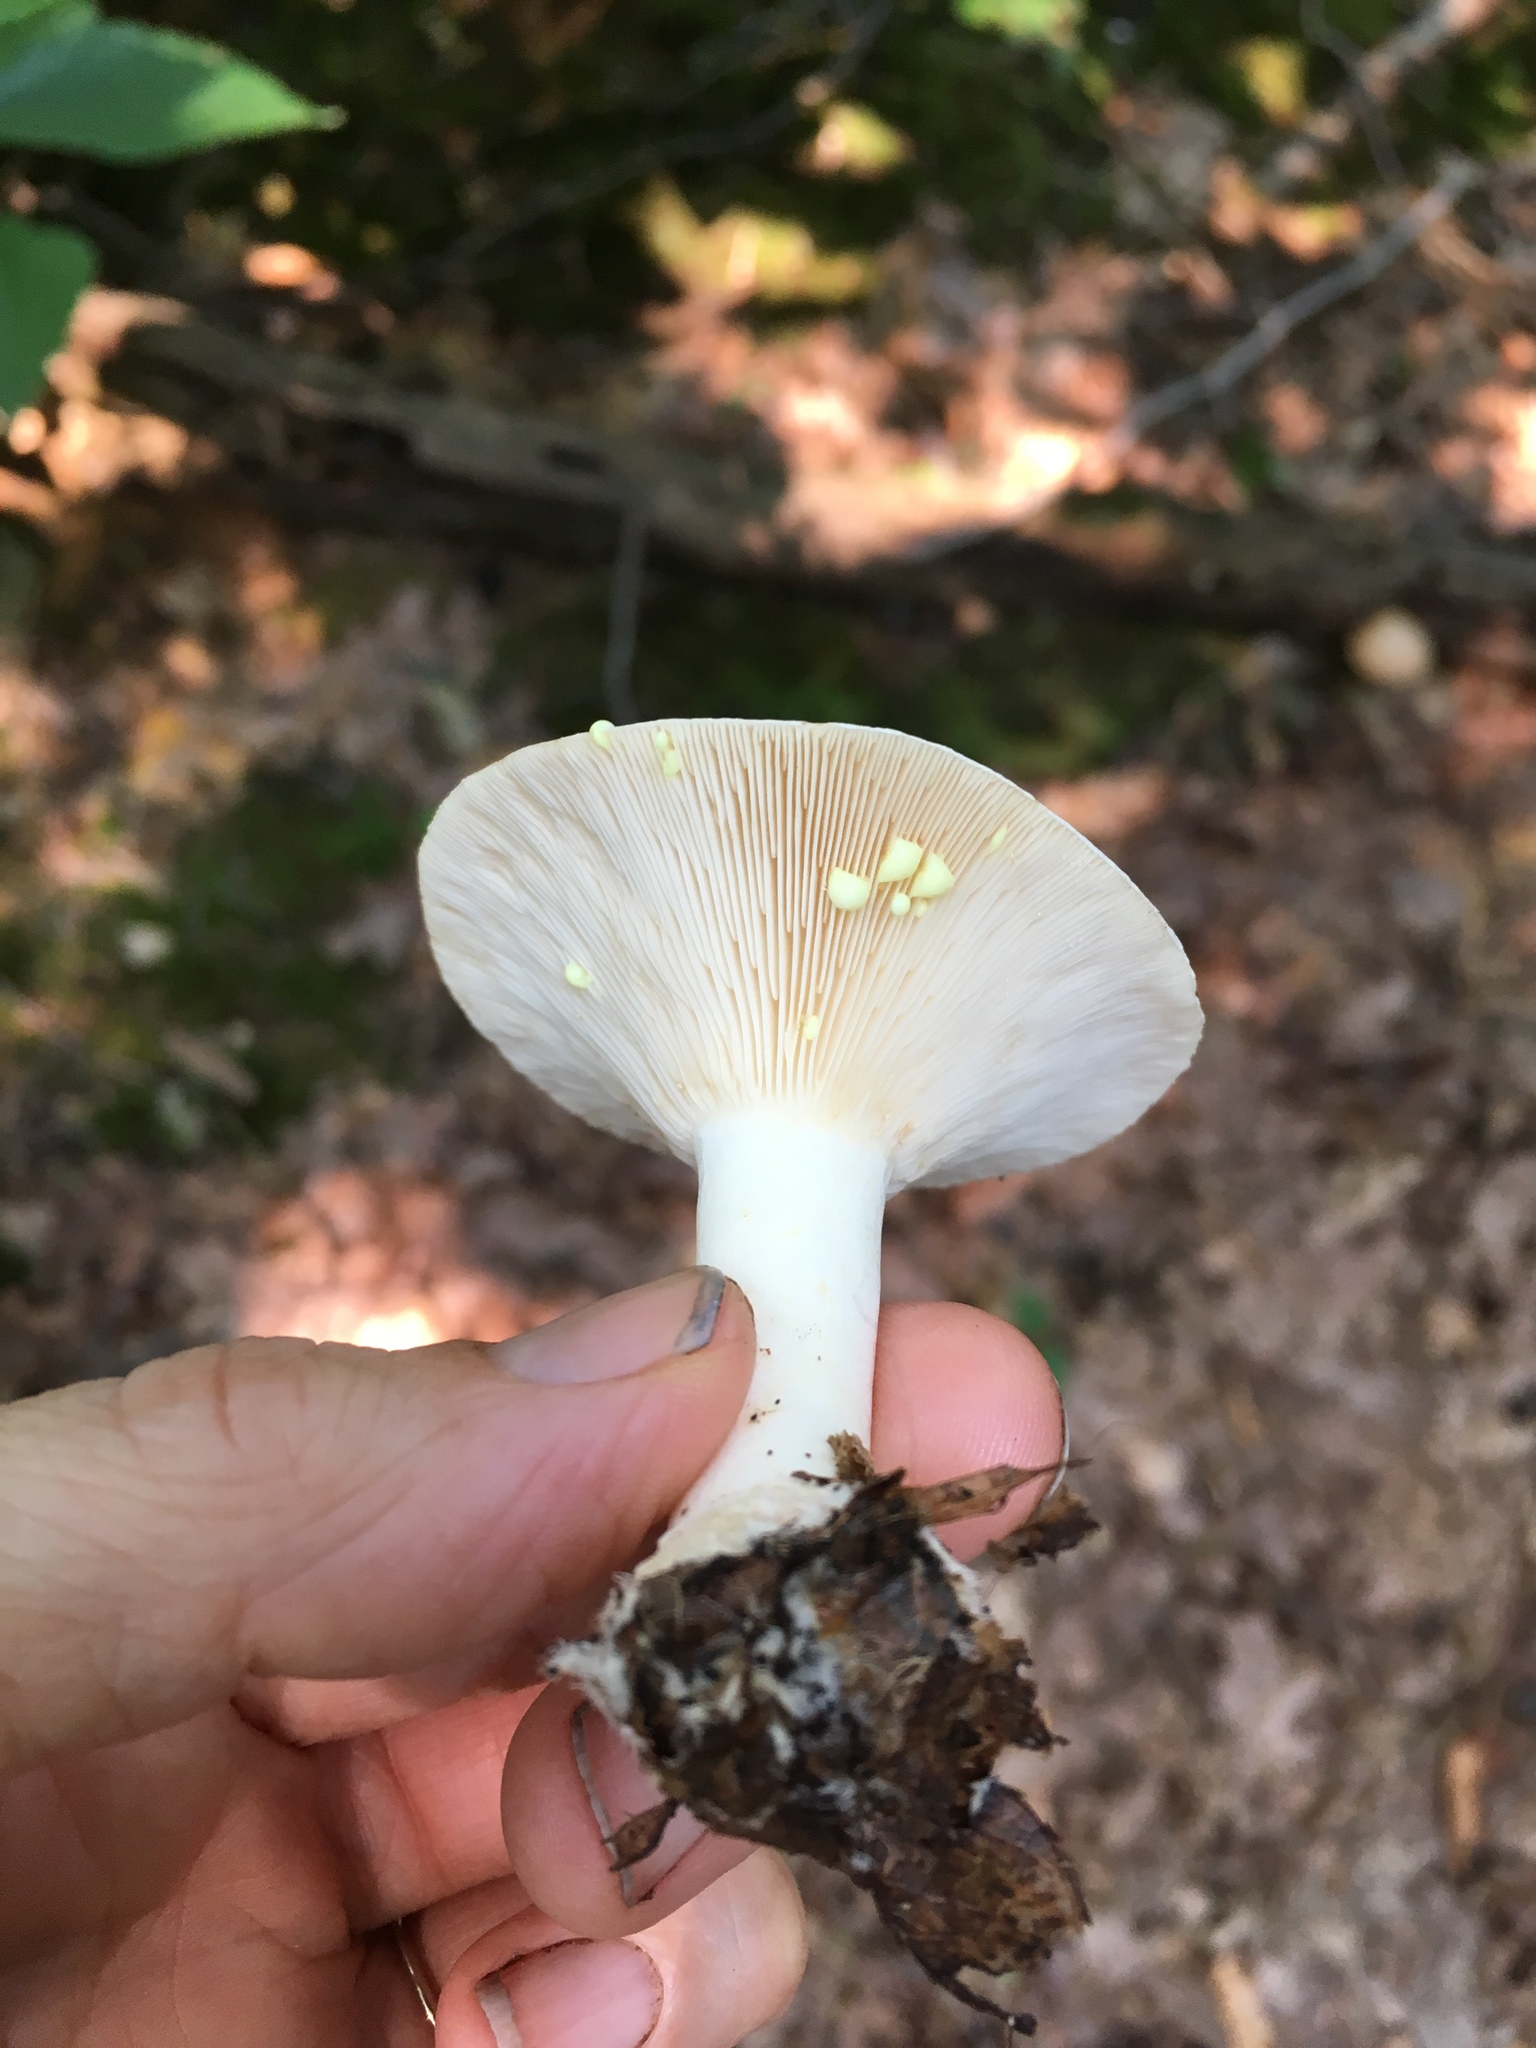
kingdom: Fungi
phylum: Basidiomycota
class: Agaricomycetes
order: Russulales
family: Russulaceae
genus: Lactarius
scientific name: Lactarius chrysorrheus
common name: Yellowdrop milkcap
